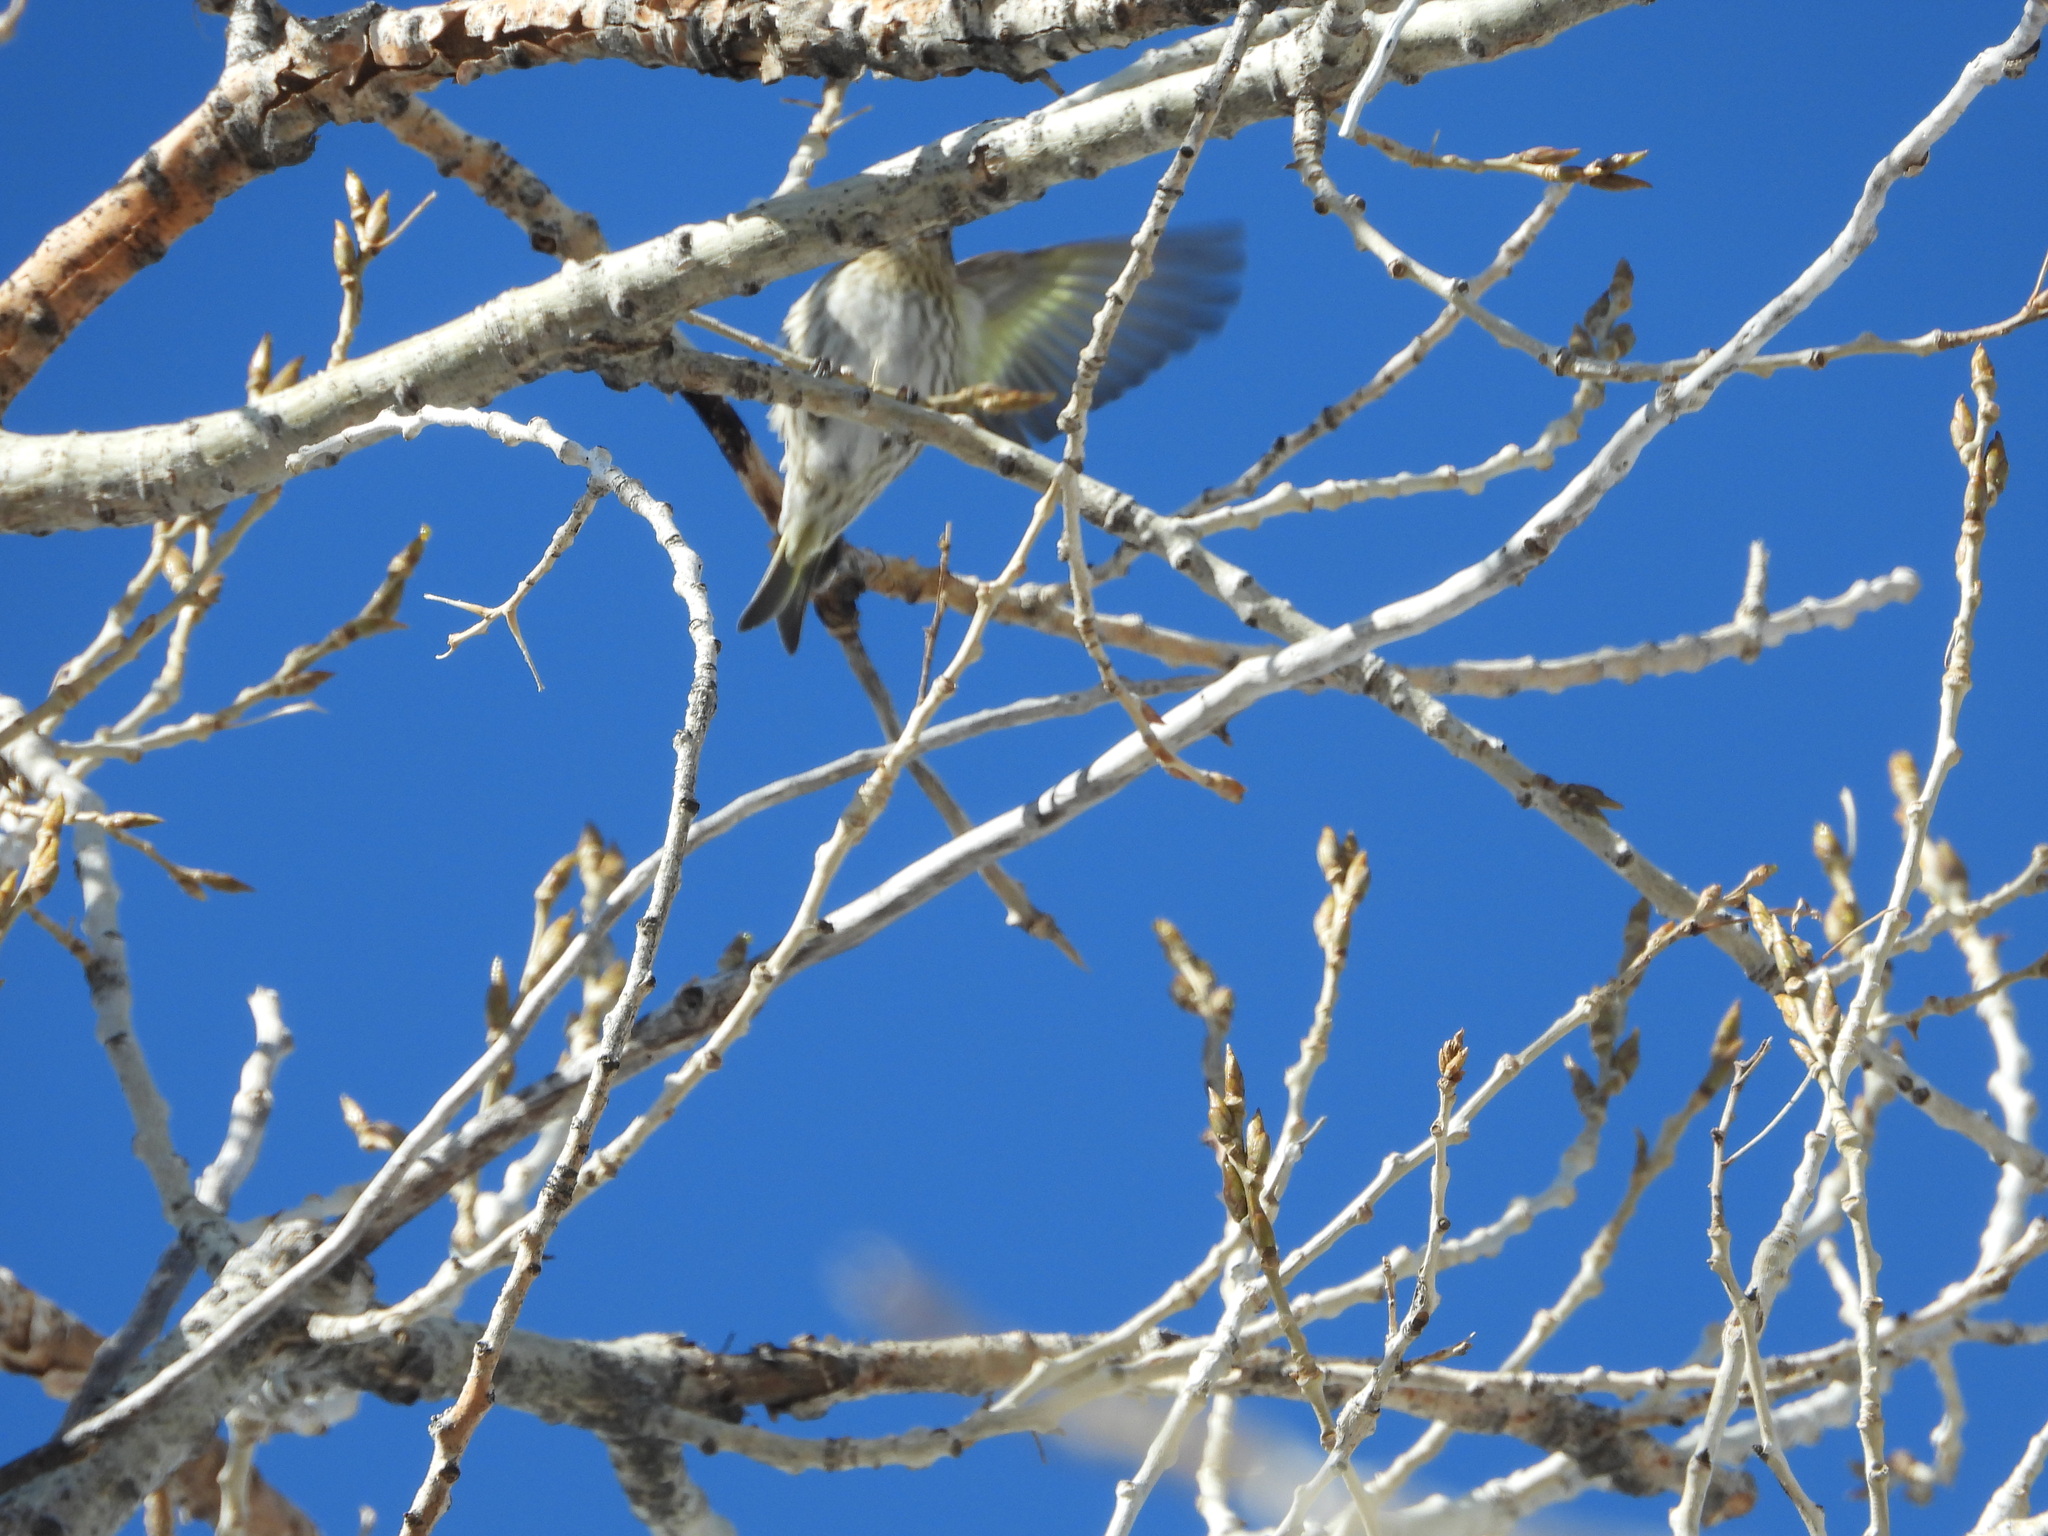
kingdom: Animalia
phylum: Chordata
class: Aves
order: Passeriformes
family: Fringillidae
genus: Spinus
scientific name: Spinus pinus
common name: Pine siskin
